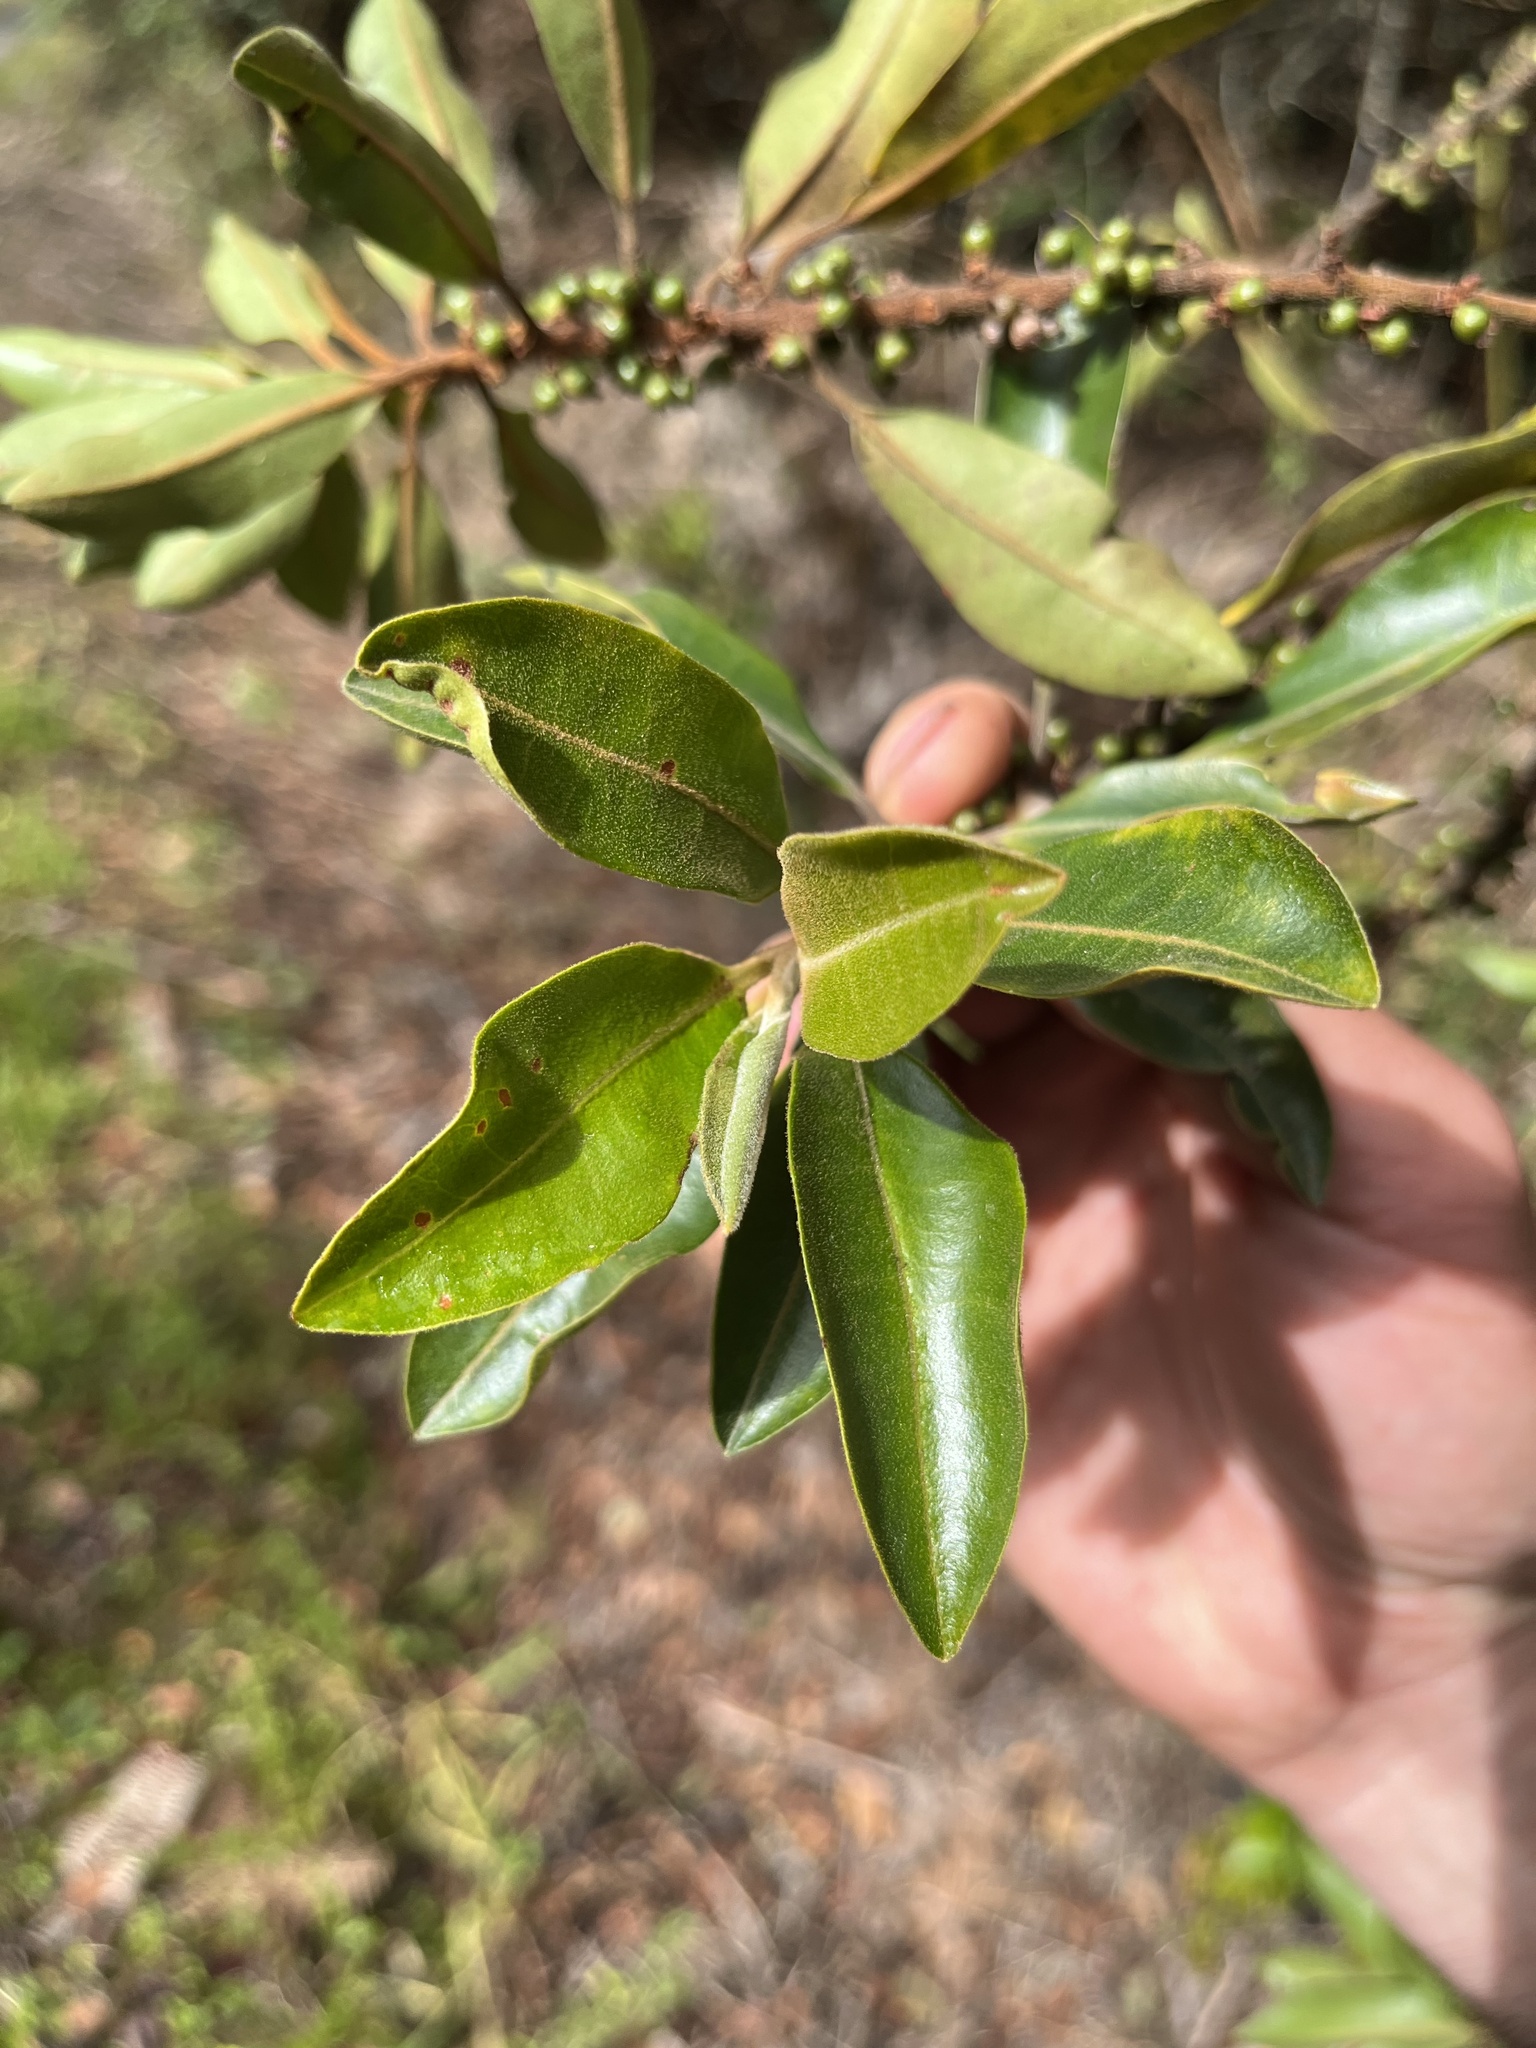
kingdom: Plantae
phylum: Tracheophyta
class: Magnoliopsida
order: Ericales
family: Primulaceae
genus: Myrsine
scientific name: Myrsine coriacea
